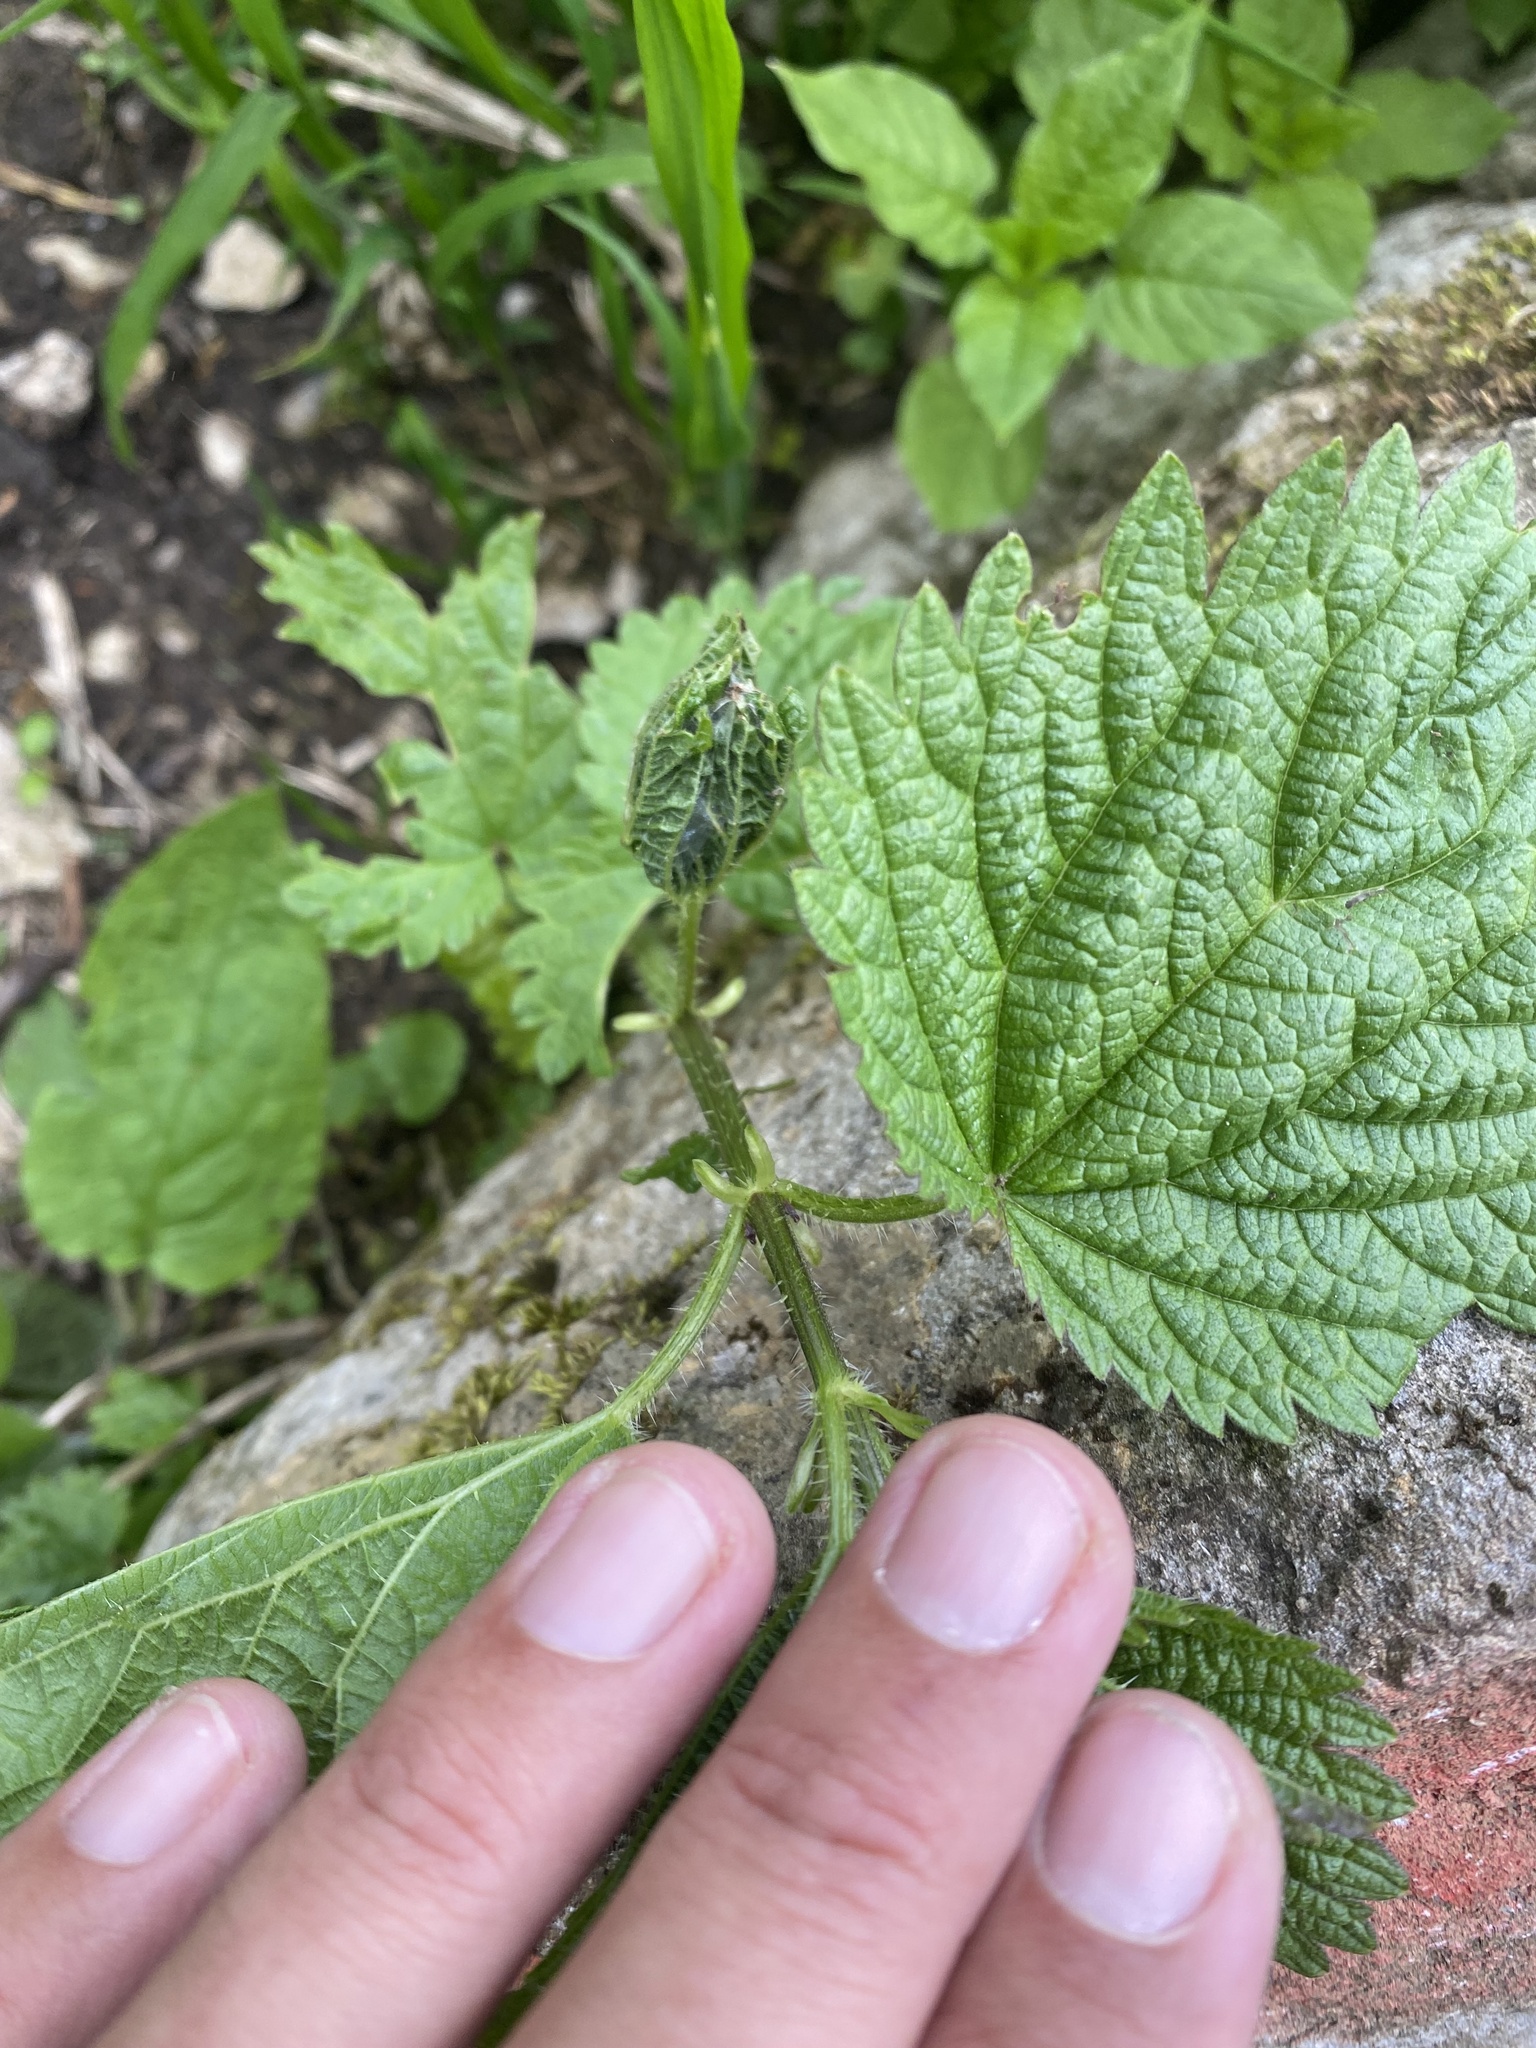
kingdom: Plantae
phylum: Tracheophyta
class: Magnoliopsida
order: Rosales
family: Urticaceae
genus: Urtica
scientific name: Urtica dioica
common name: Common nettle
